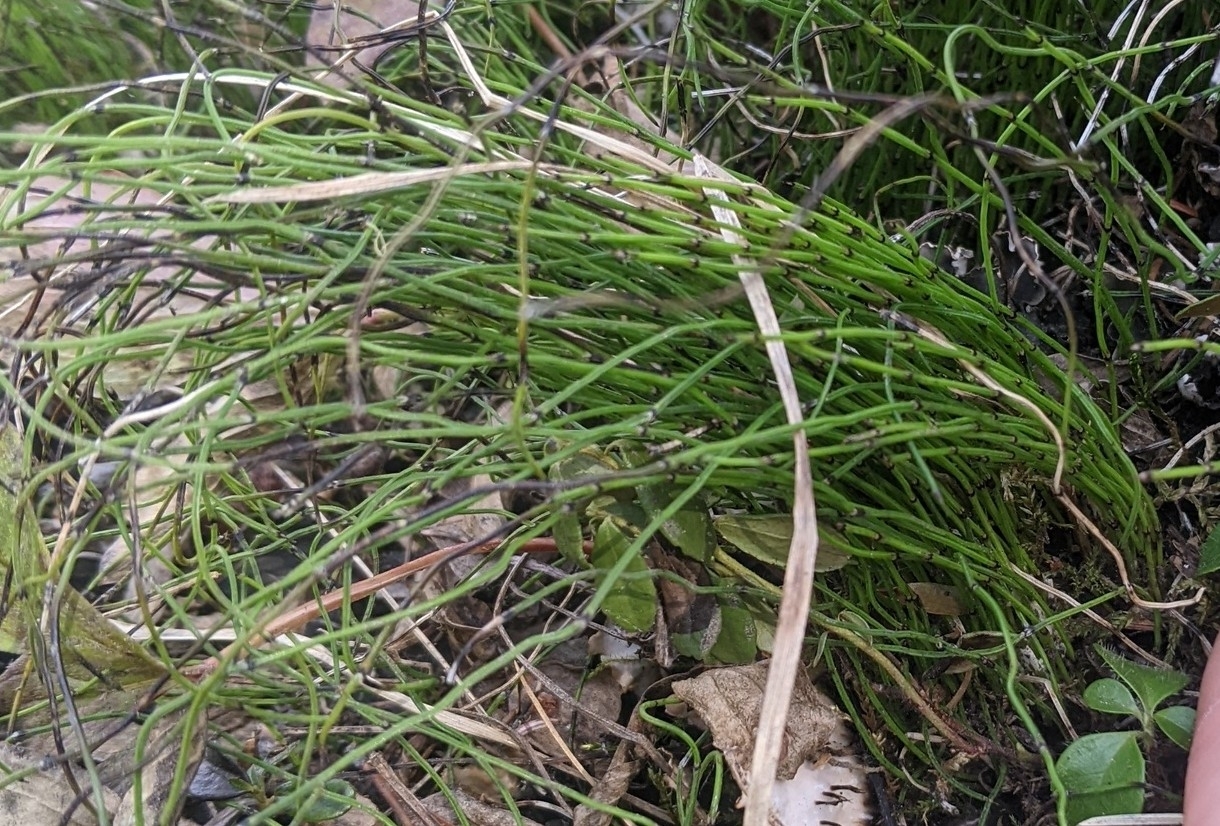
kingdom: Plantae
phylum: Tracheophyta
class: Polypodiopsida
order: Equisetales
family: Equisetaceae
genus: Equisetum
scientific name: Equisetum scirpoides
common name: Delicate horsetail
